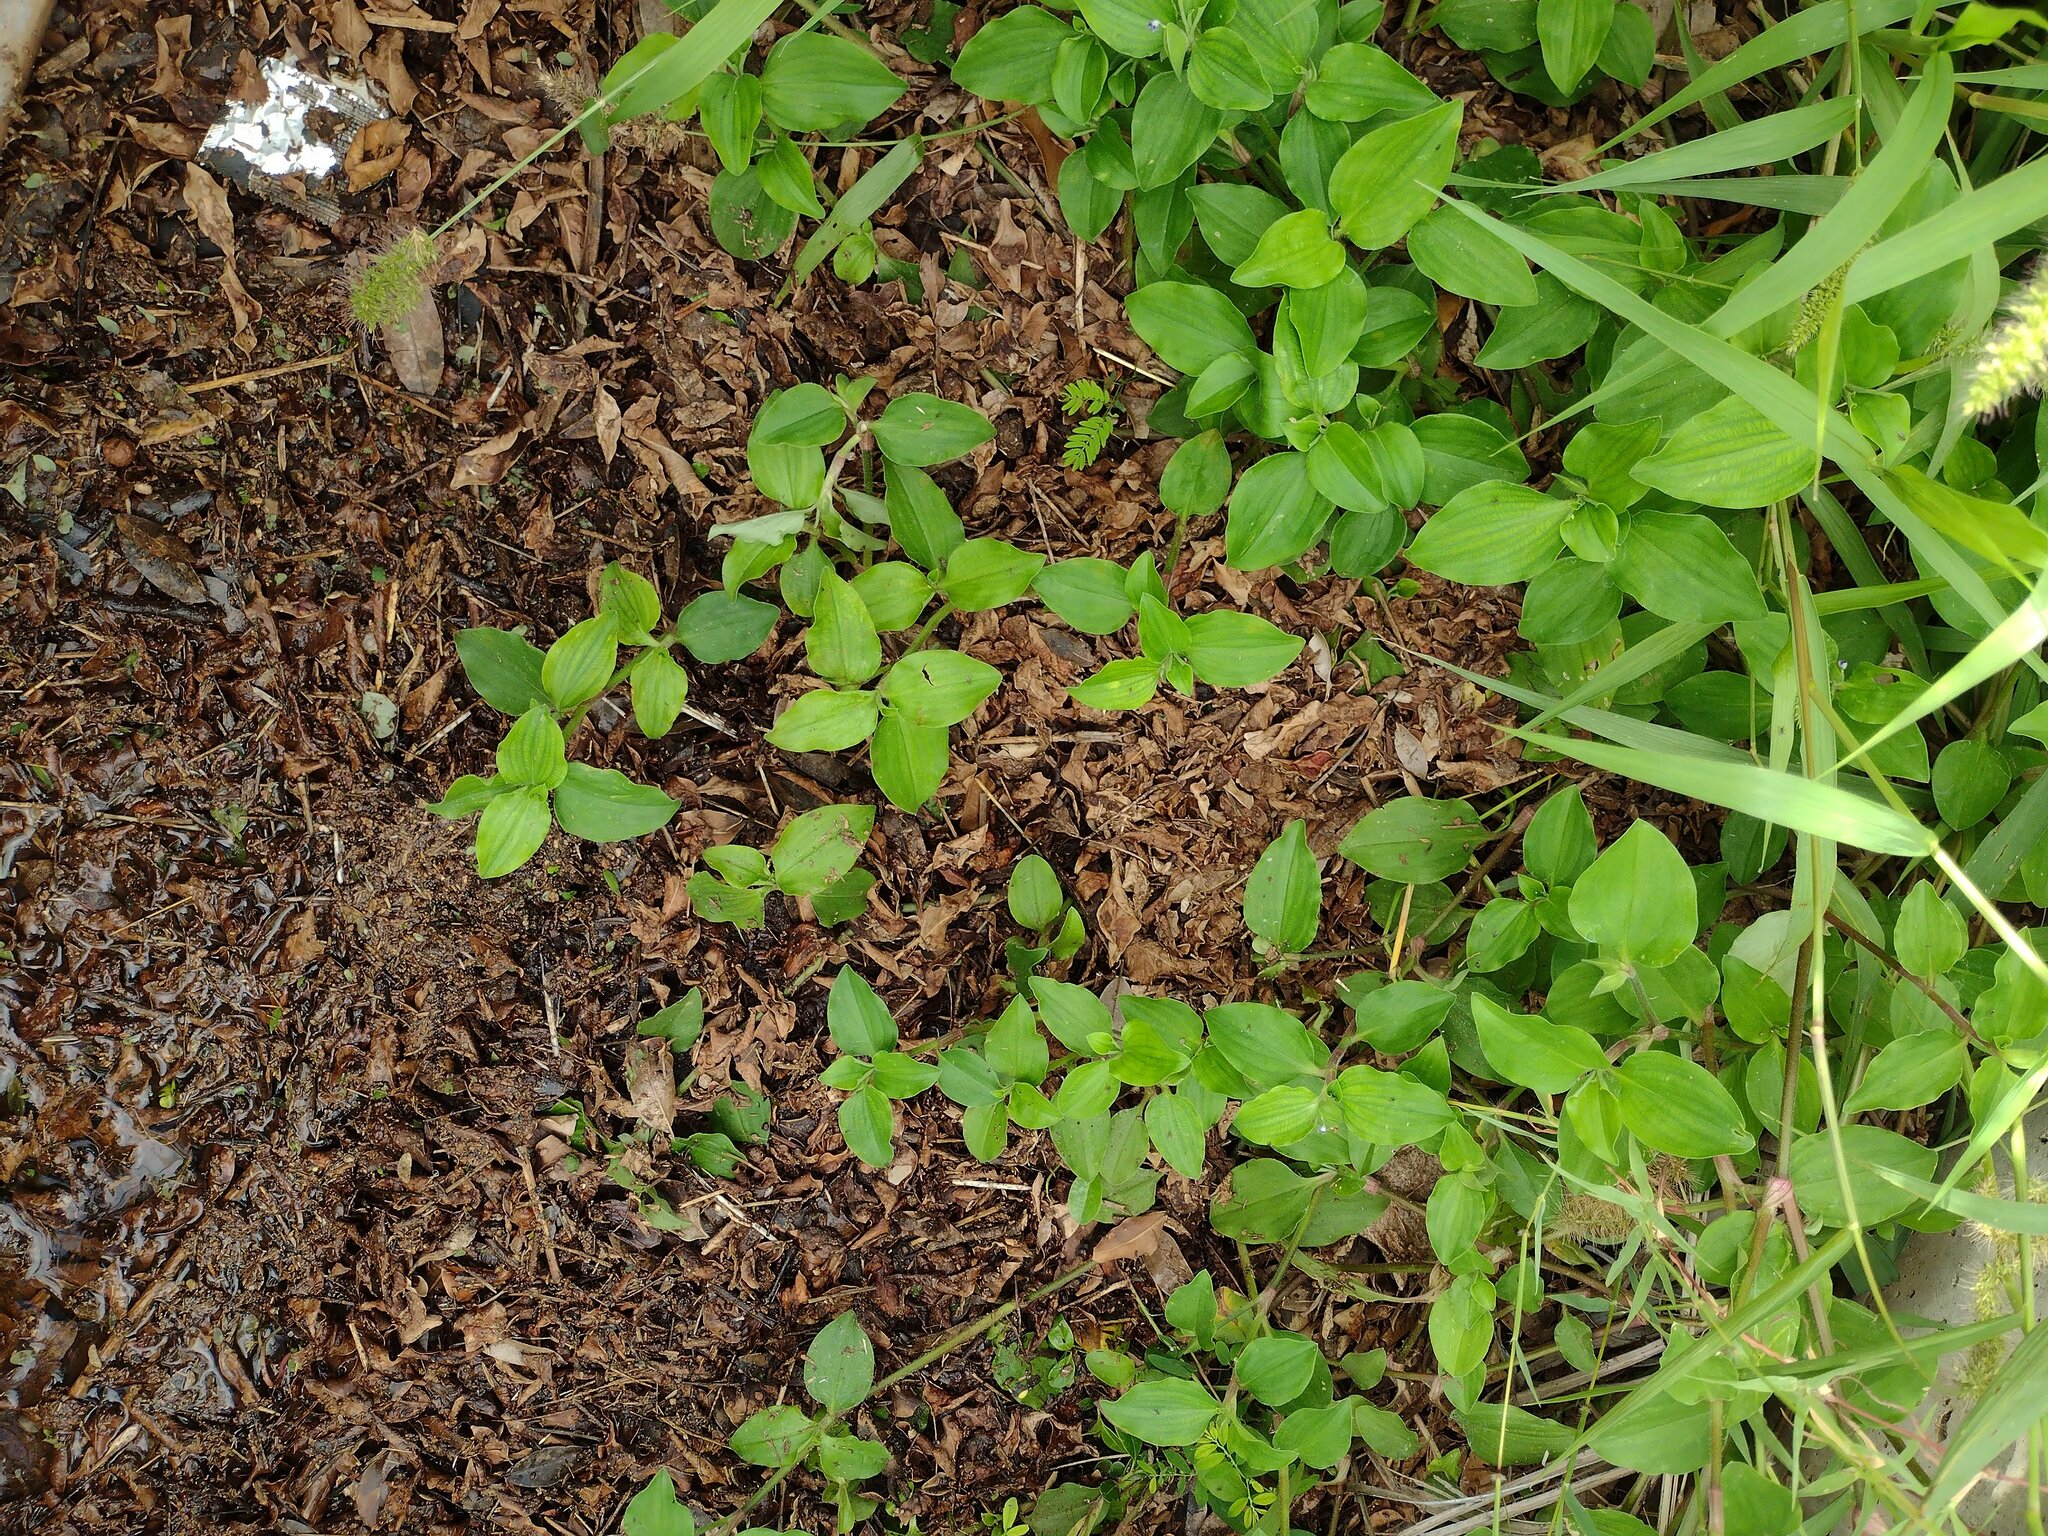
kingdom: Plantae
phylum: Tracheophyta
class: Liliopsida
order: Commelinales
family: Commelinaceae
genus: Commelina
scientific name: Commelina benghalensis
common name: Jio
